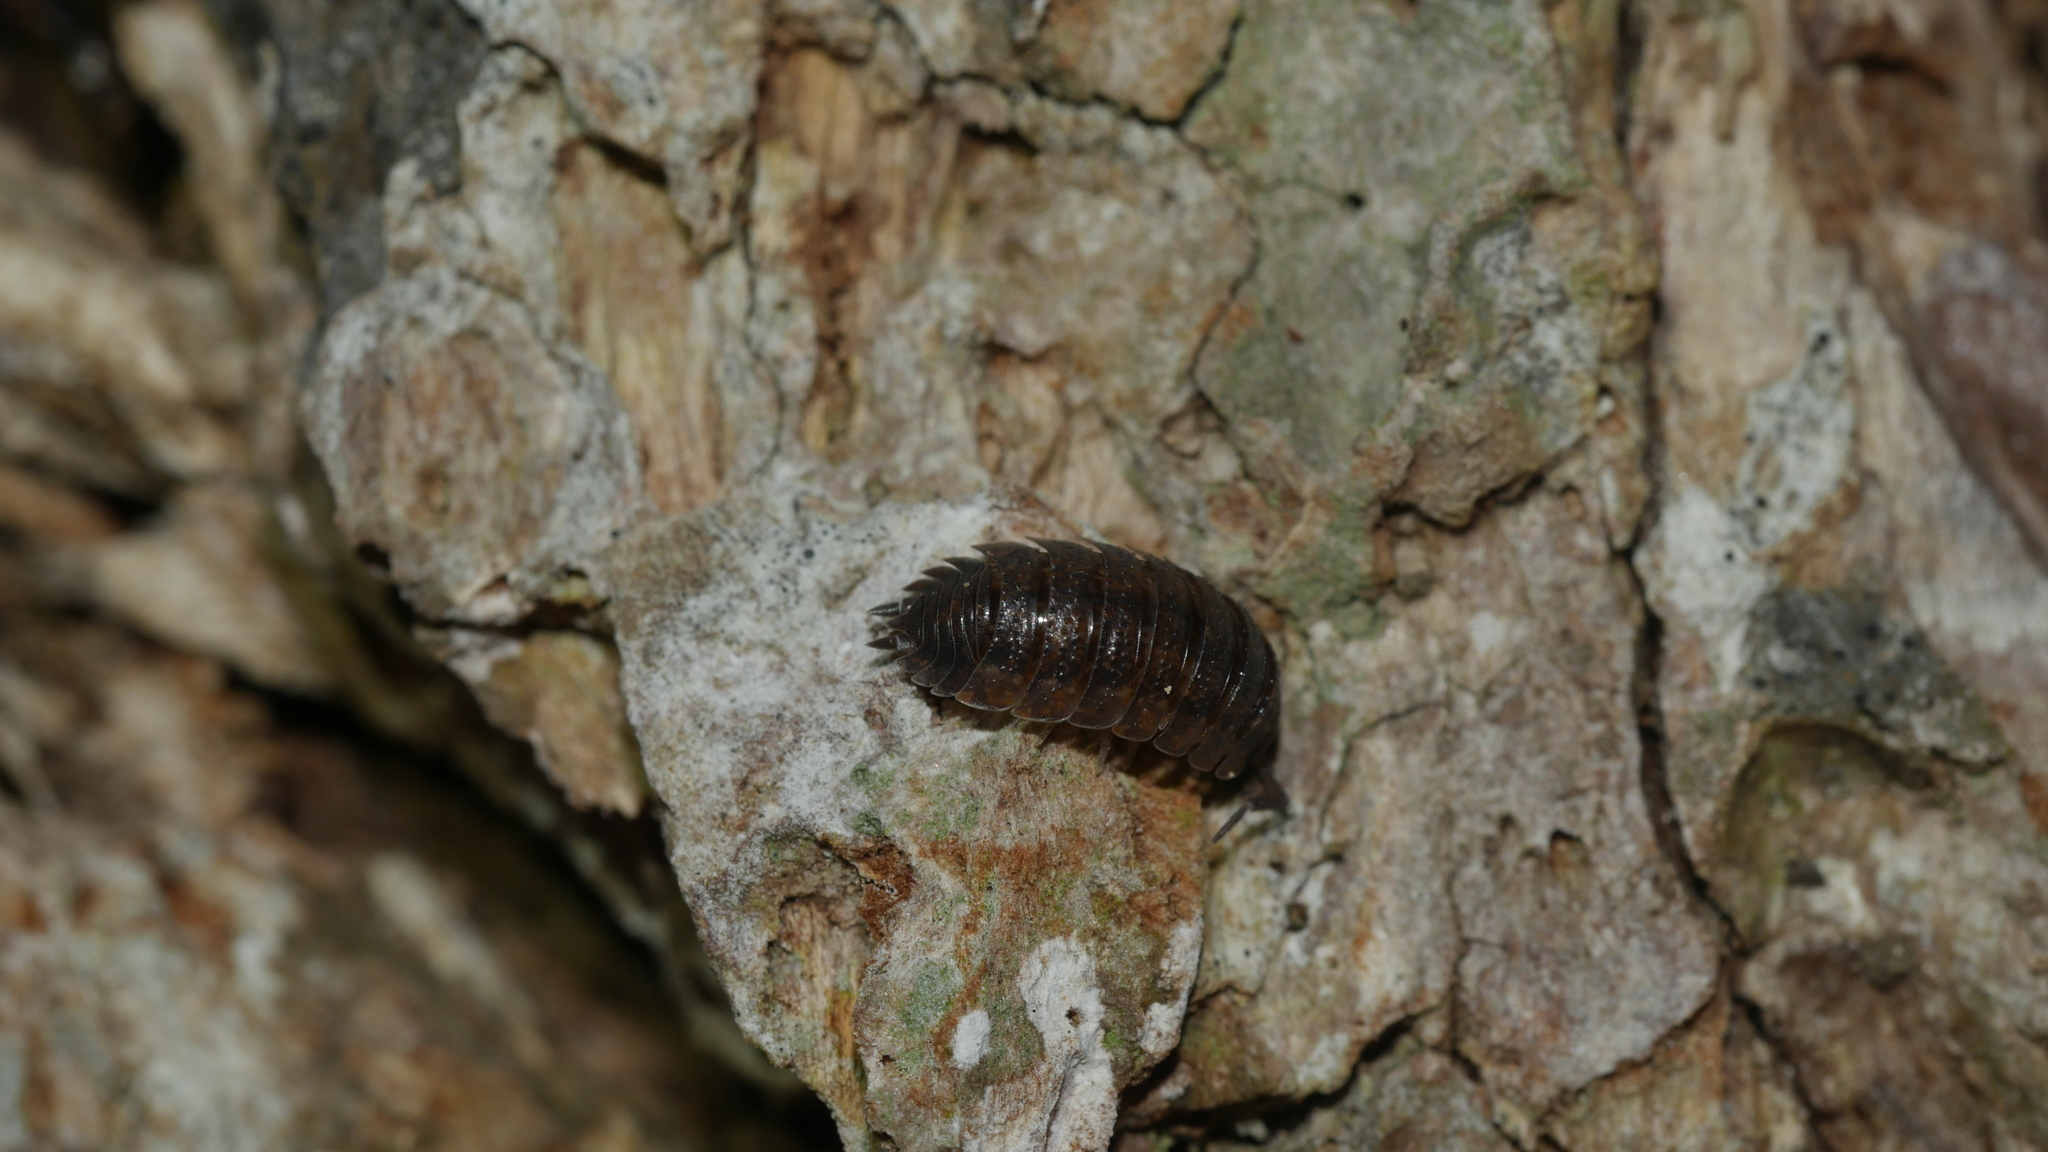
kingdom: Animalia
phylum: Arthropoda
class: Malacostraca
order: Isopoda
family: Porcellionidae
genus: Porcellio
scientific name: Porcellio scaber
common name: Common rough woodlouse
